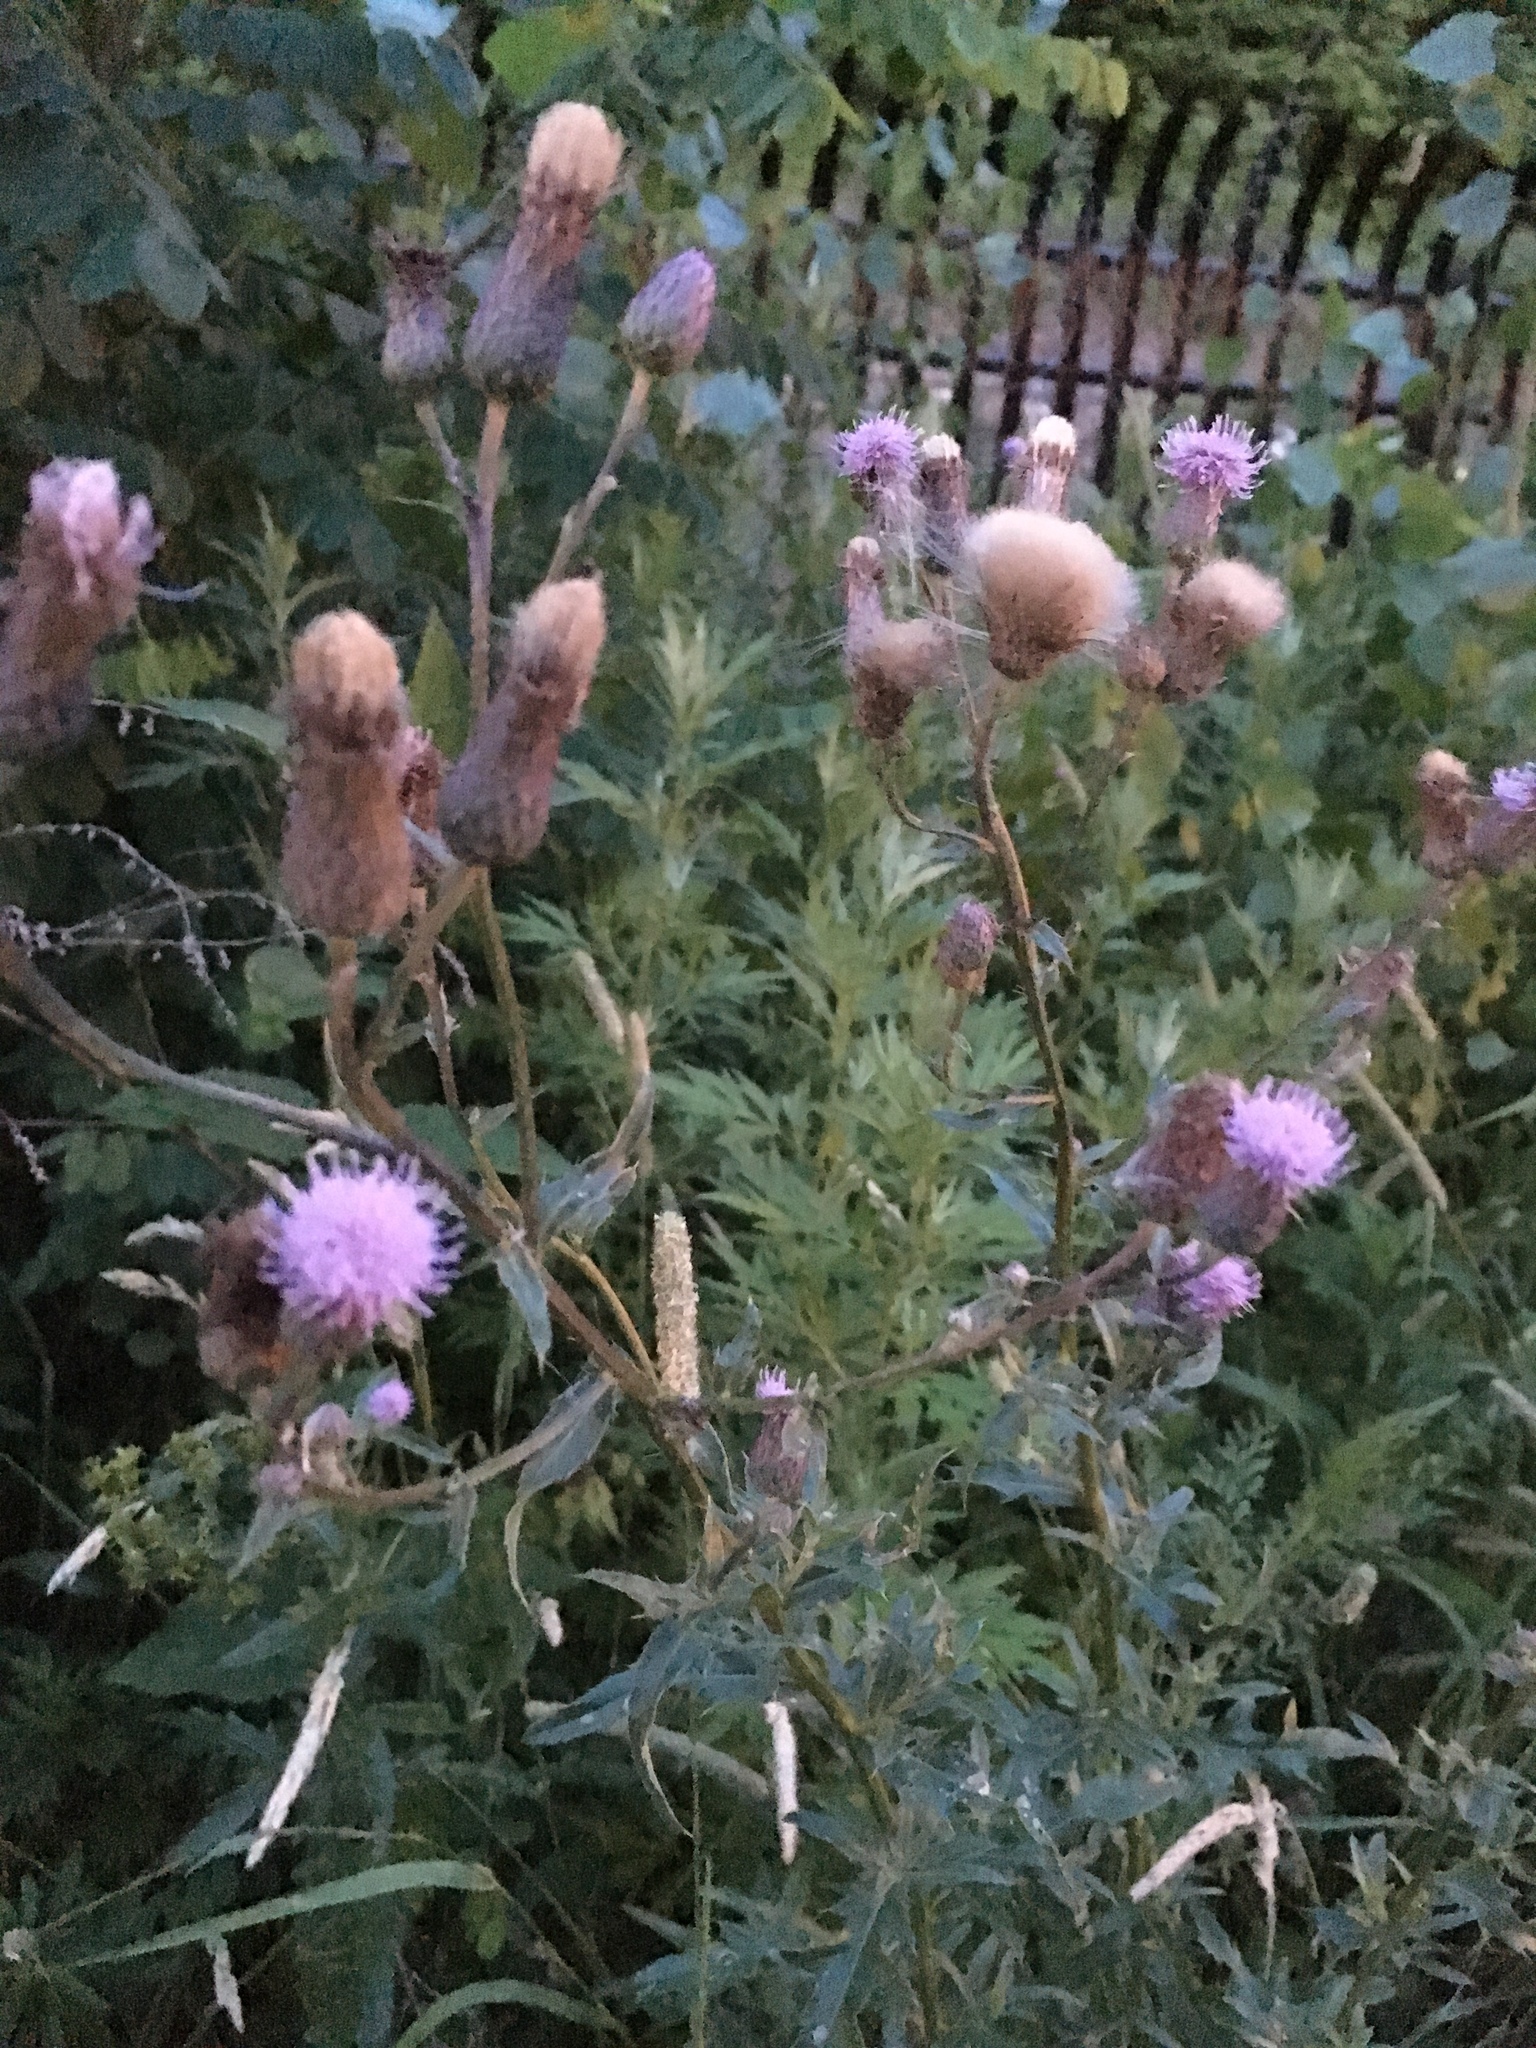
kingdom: Plantae
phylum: Tracheophyta
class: Magnoliopsida
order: Asterales
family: Asteraceae
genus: Cirsium
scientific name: Cirsium arvense
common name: Creeping thistle
